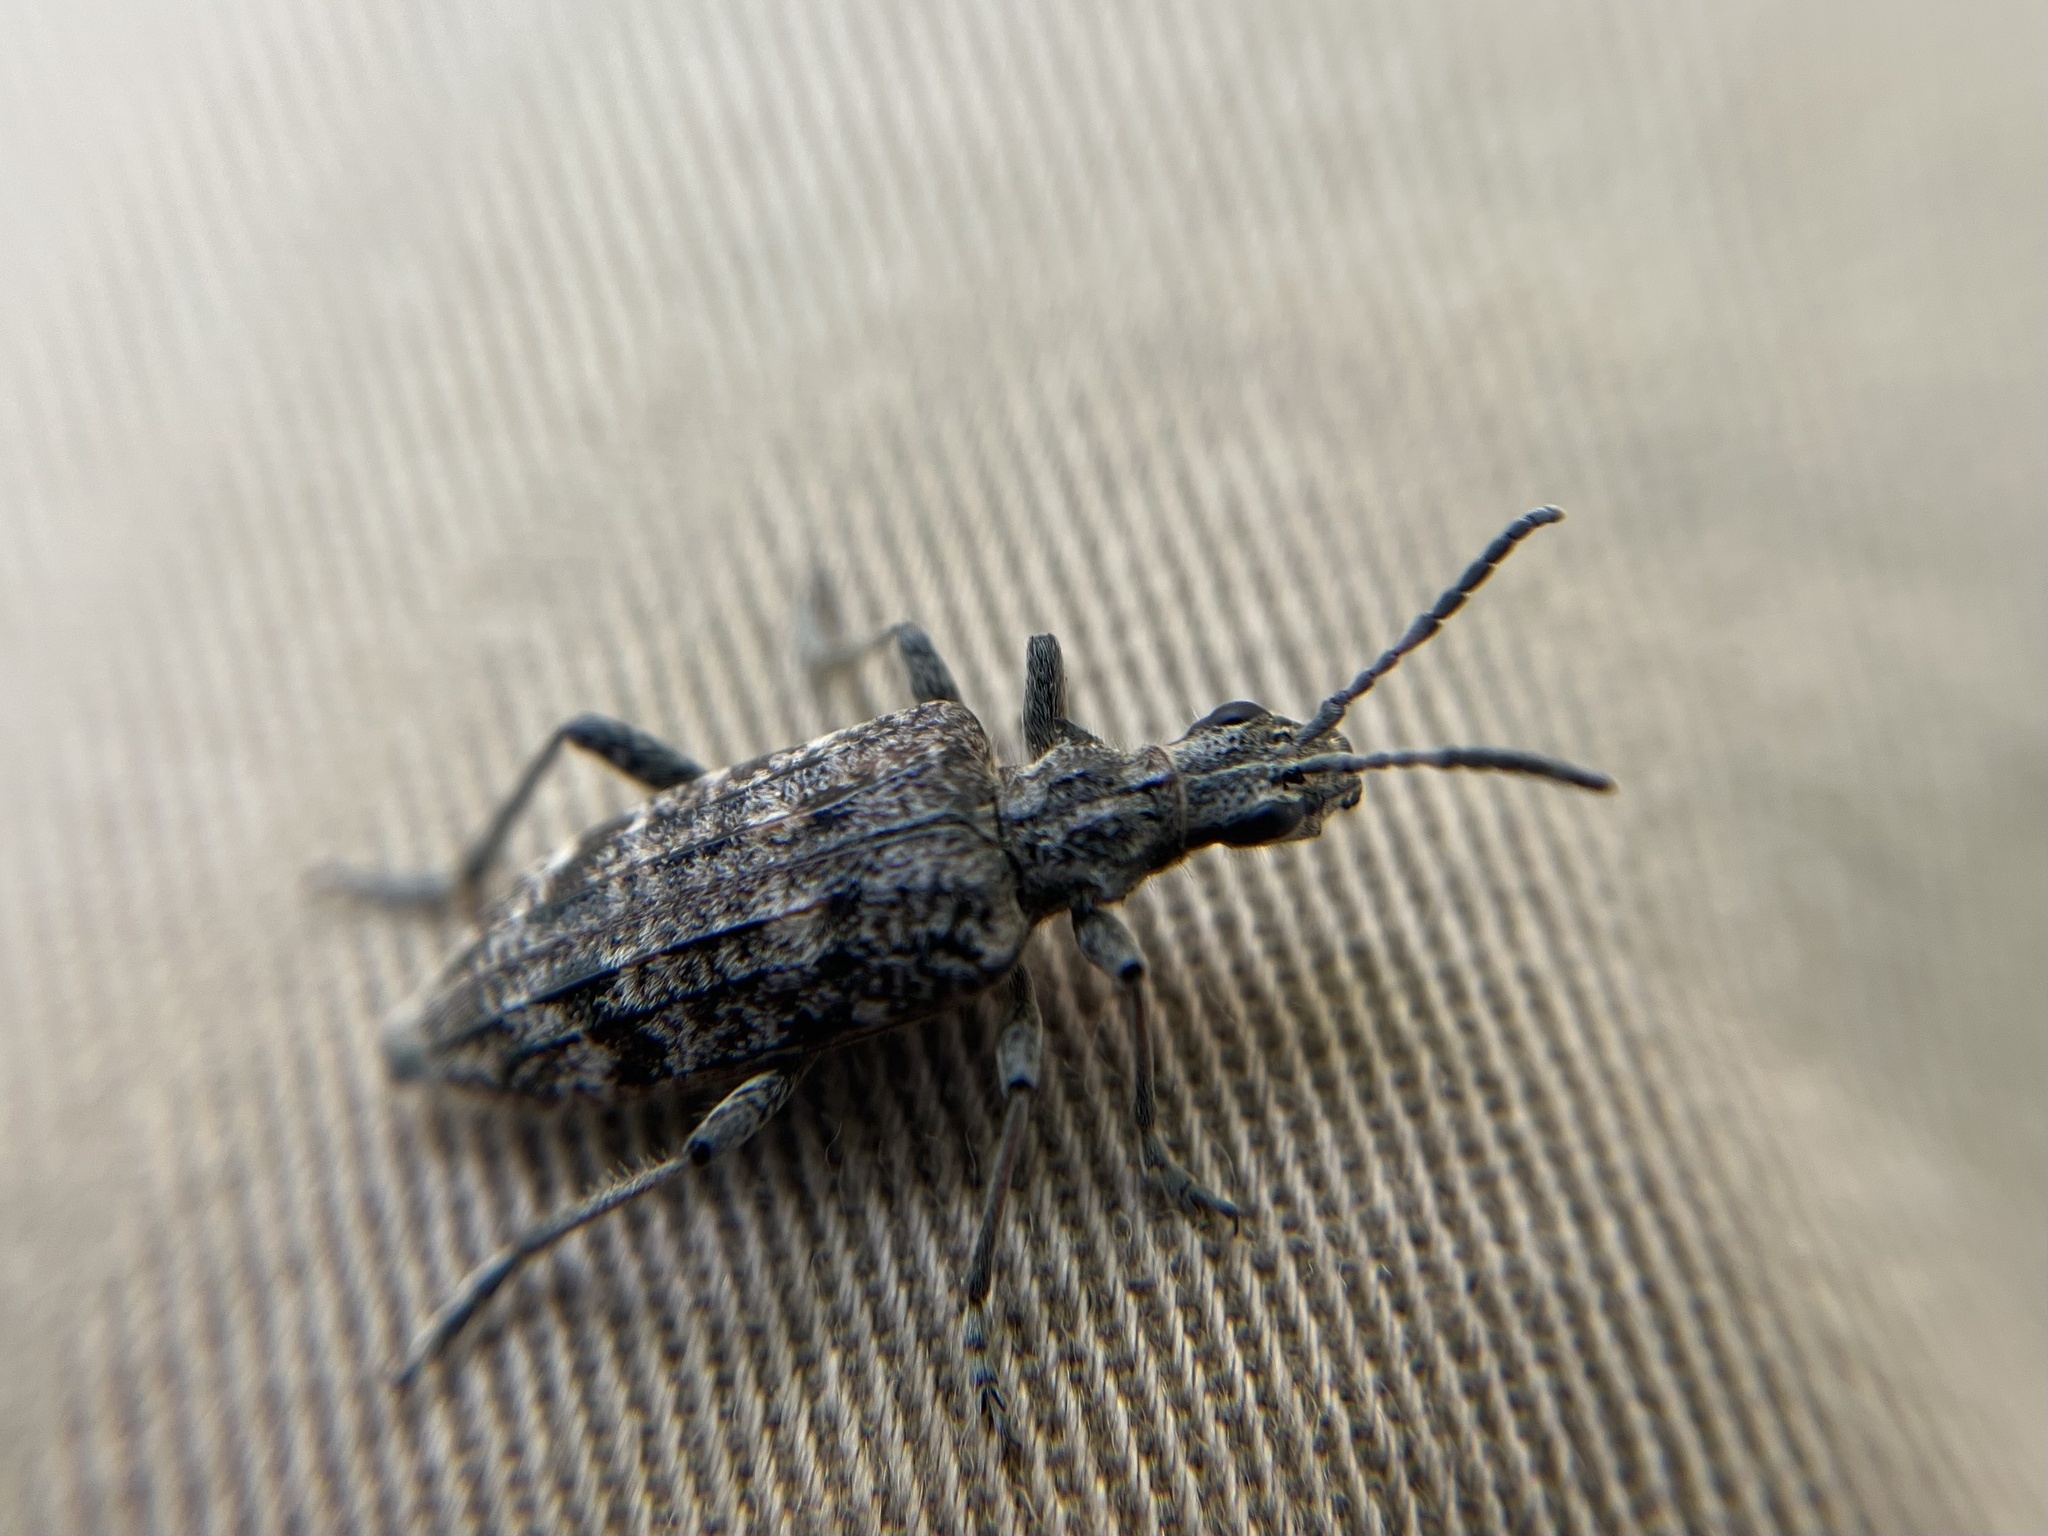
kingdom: Animalia
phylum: Arthropoda
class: Insecta
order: Coleoptera
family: Cerambycidae
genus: Rhagium
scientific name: Rhagium inquisitor
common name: Ribbed pine borer
